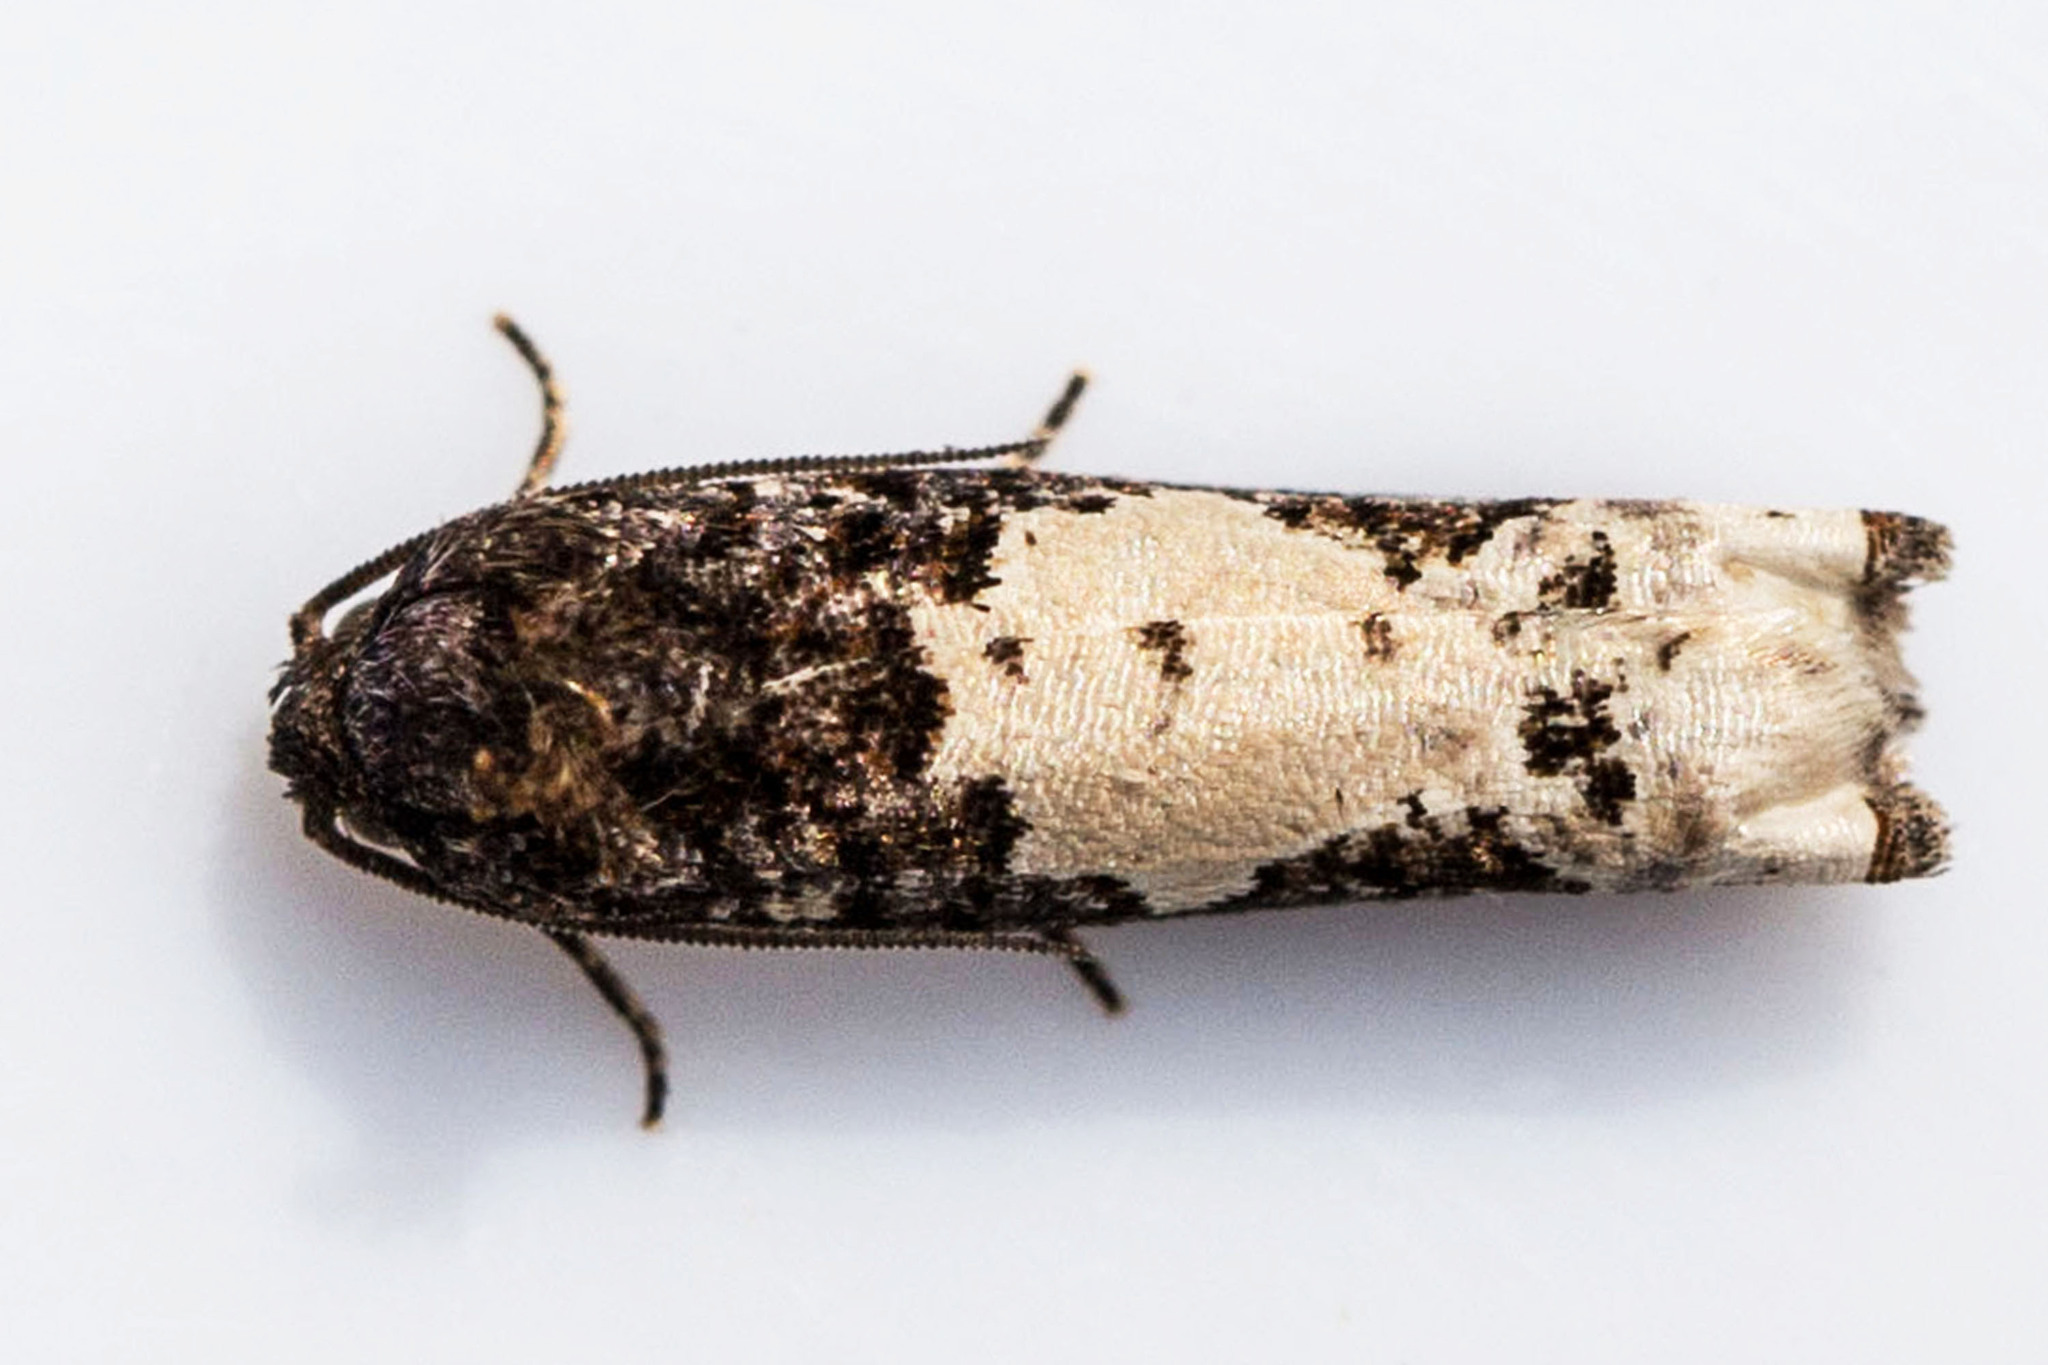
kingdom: Animalia
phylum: Arthropoda
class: Insecta
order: Lepidoptera
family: Tortricidae
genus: Epiblema
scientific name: Epiblema dorsisuffusana
